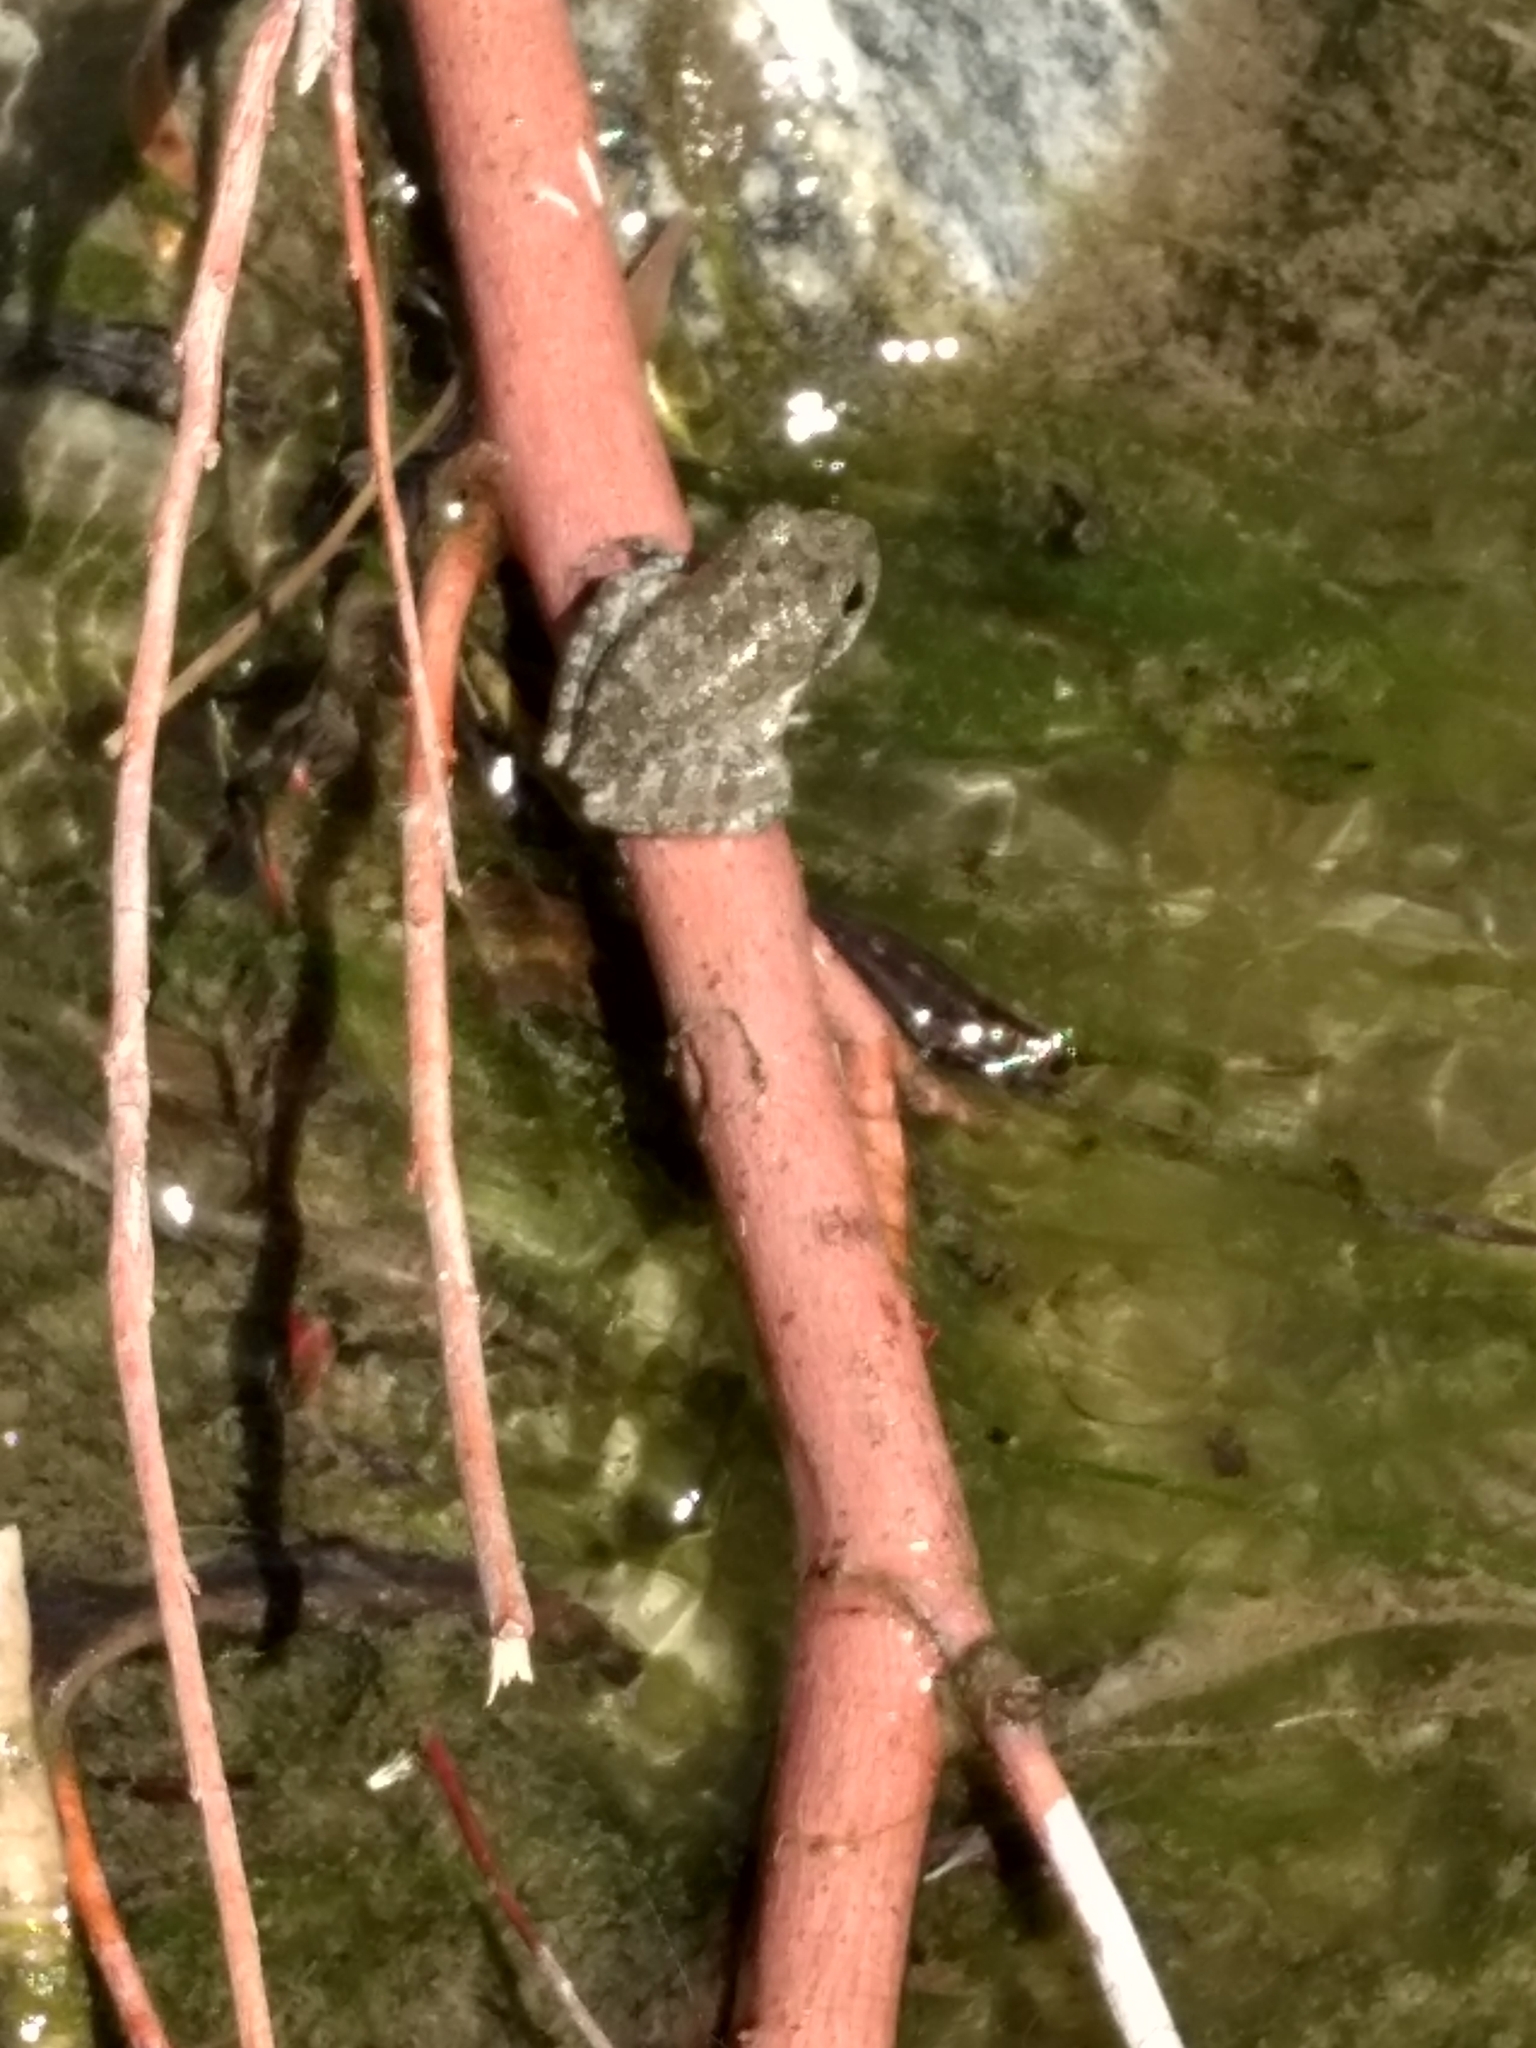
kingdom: Animalia
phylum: Chordata
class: Amphibia
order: Anura
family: Hylidae
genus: Pseudacris
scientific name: Pseudacris cadaverina
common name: California chorus frog
